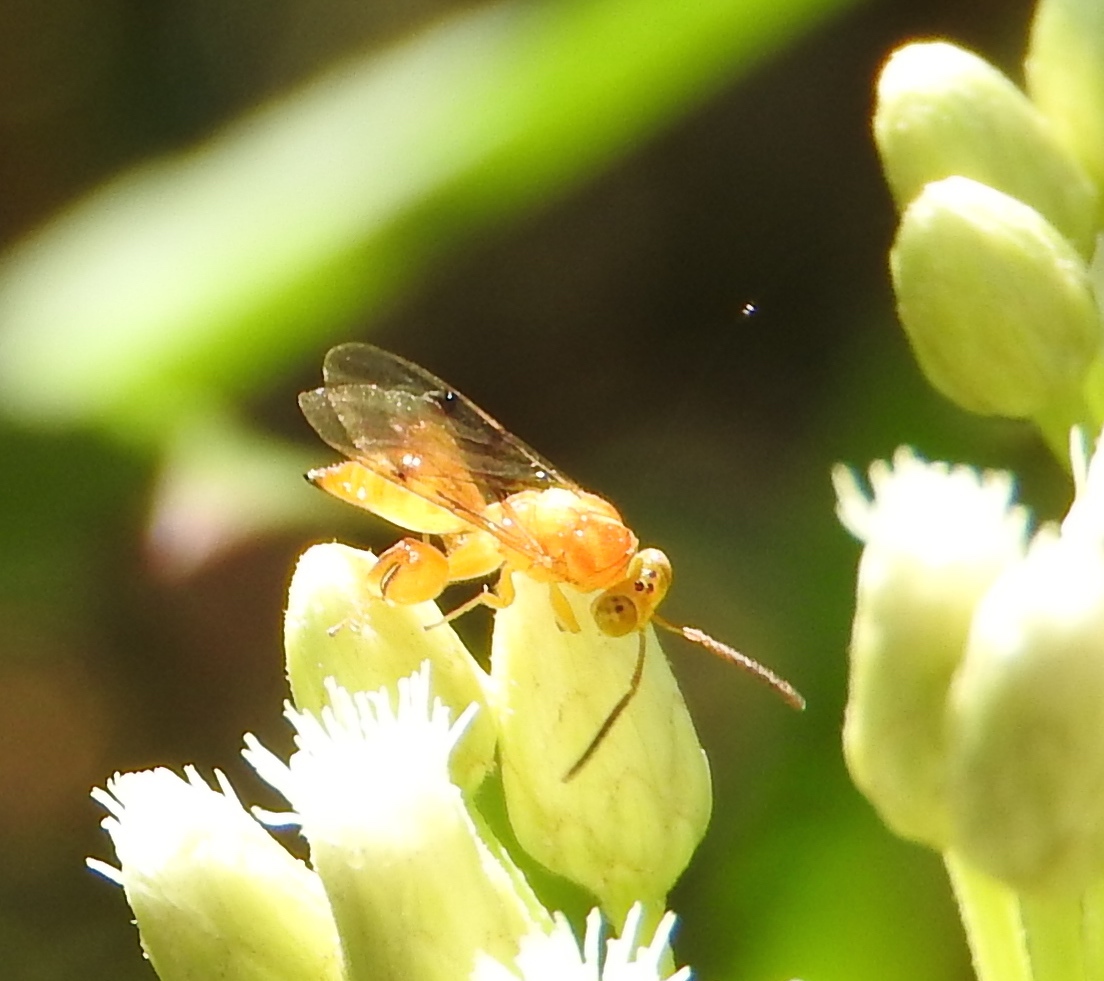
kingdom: Animalia
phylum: Arthropoda
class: Insecta
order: Hymenoptera
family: Chalcididae
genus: Conura
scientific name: Conura
